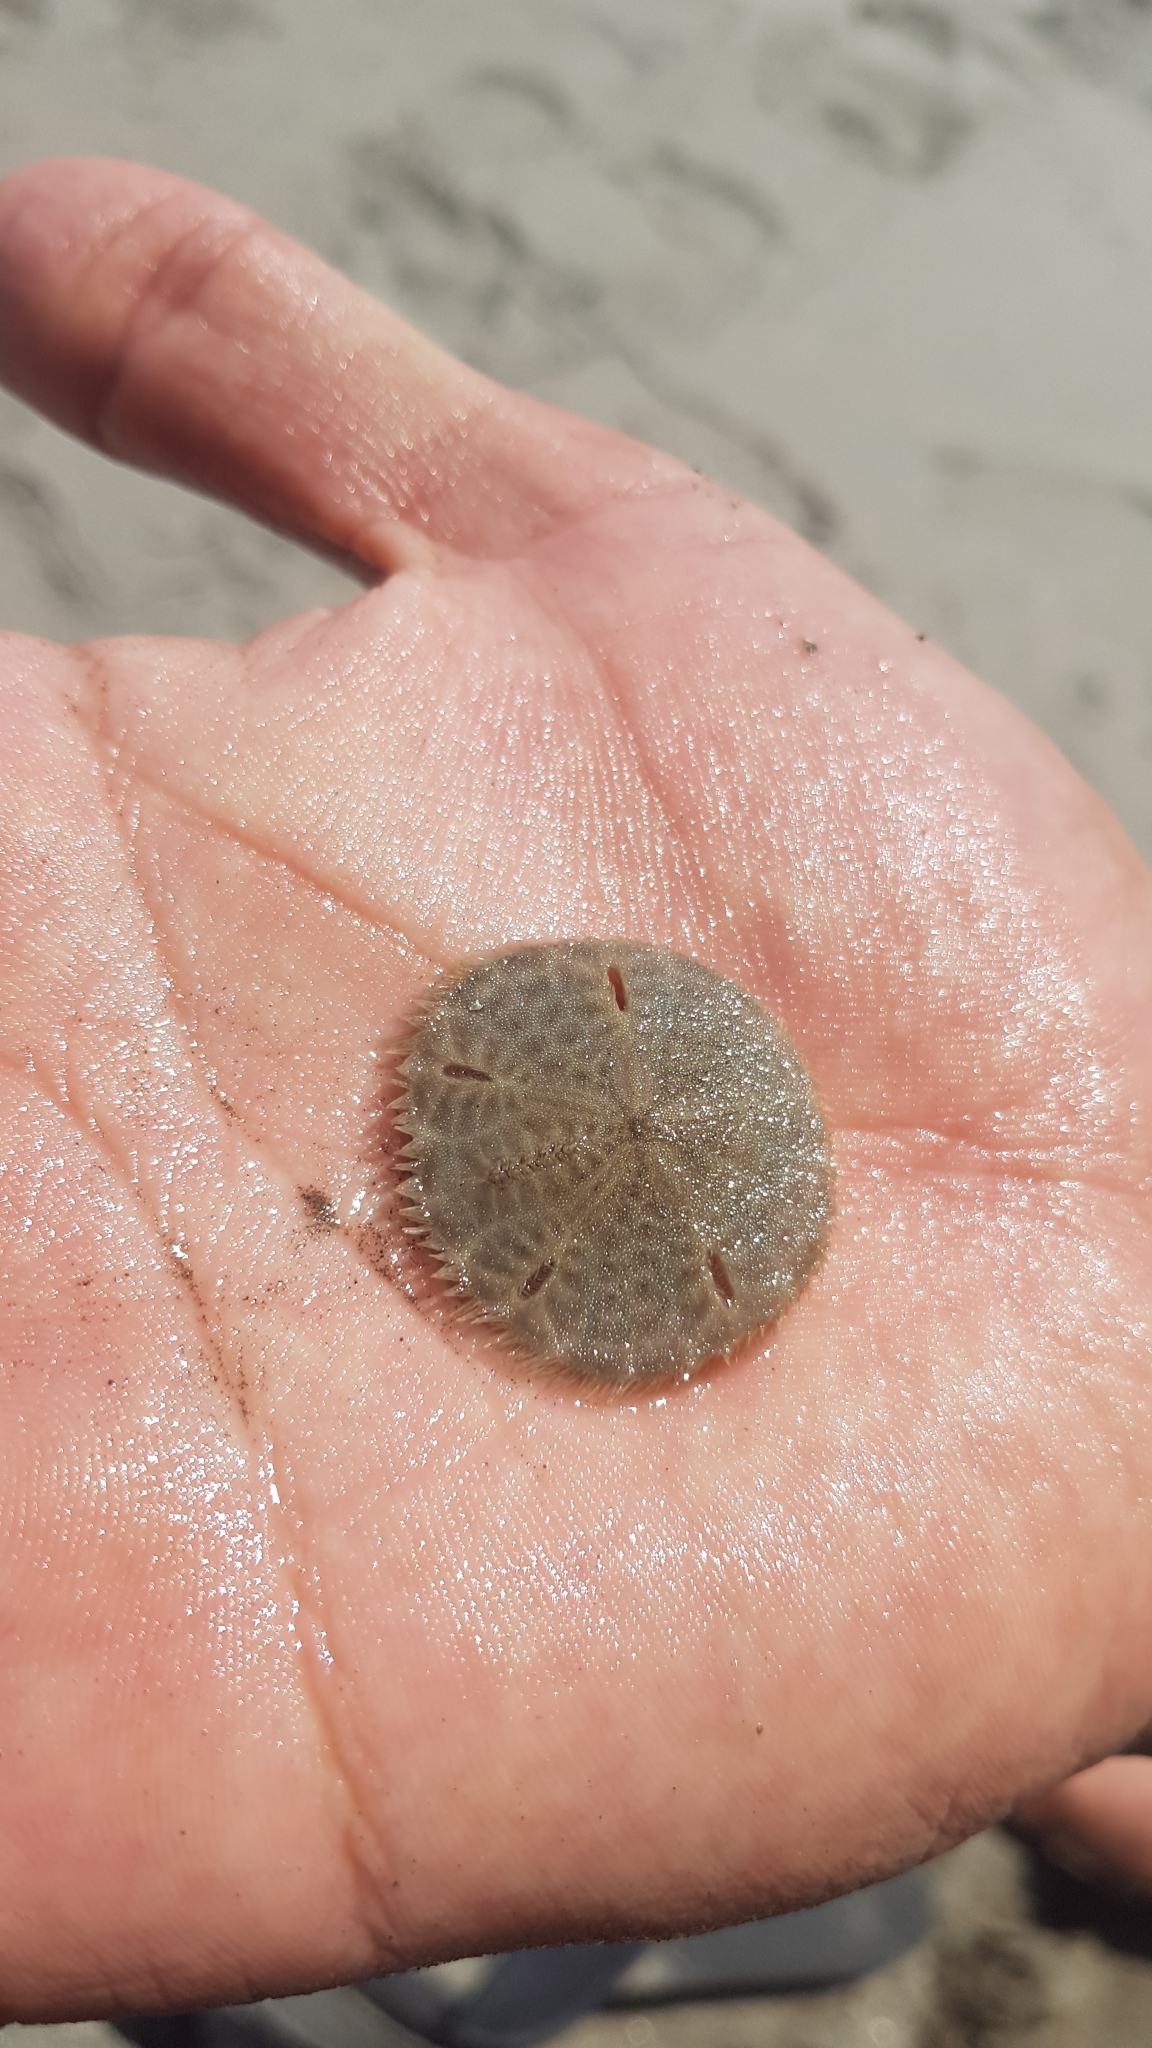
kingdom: Animalia
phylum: Echinodermata
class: Echinoidea
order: Echinolampadacea
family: Mellitidae
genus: Mellita
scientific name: Mellita notabilis
